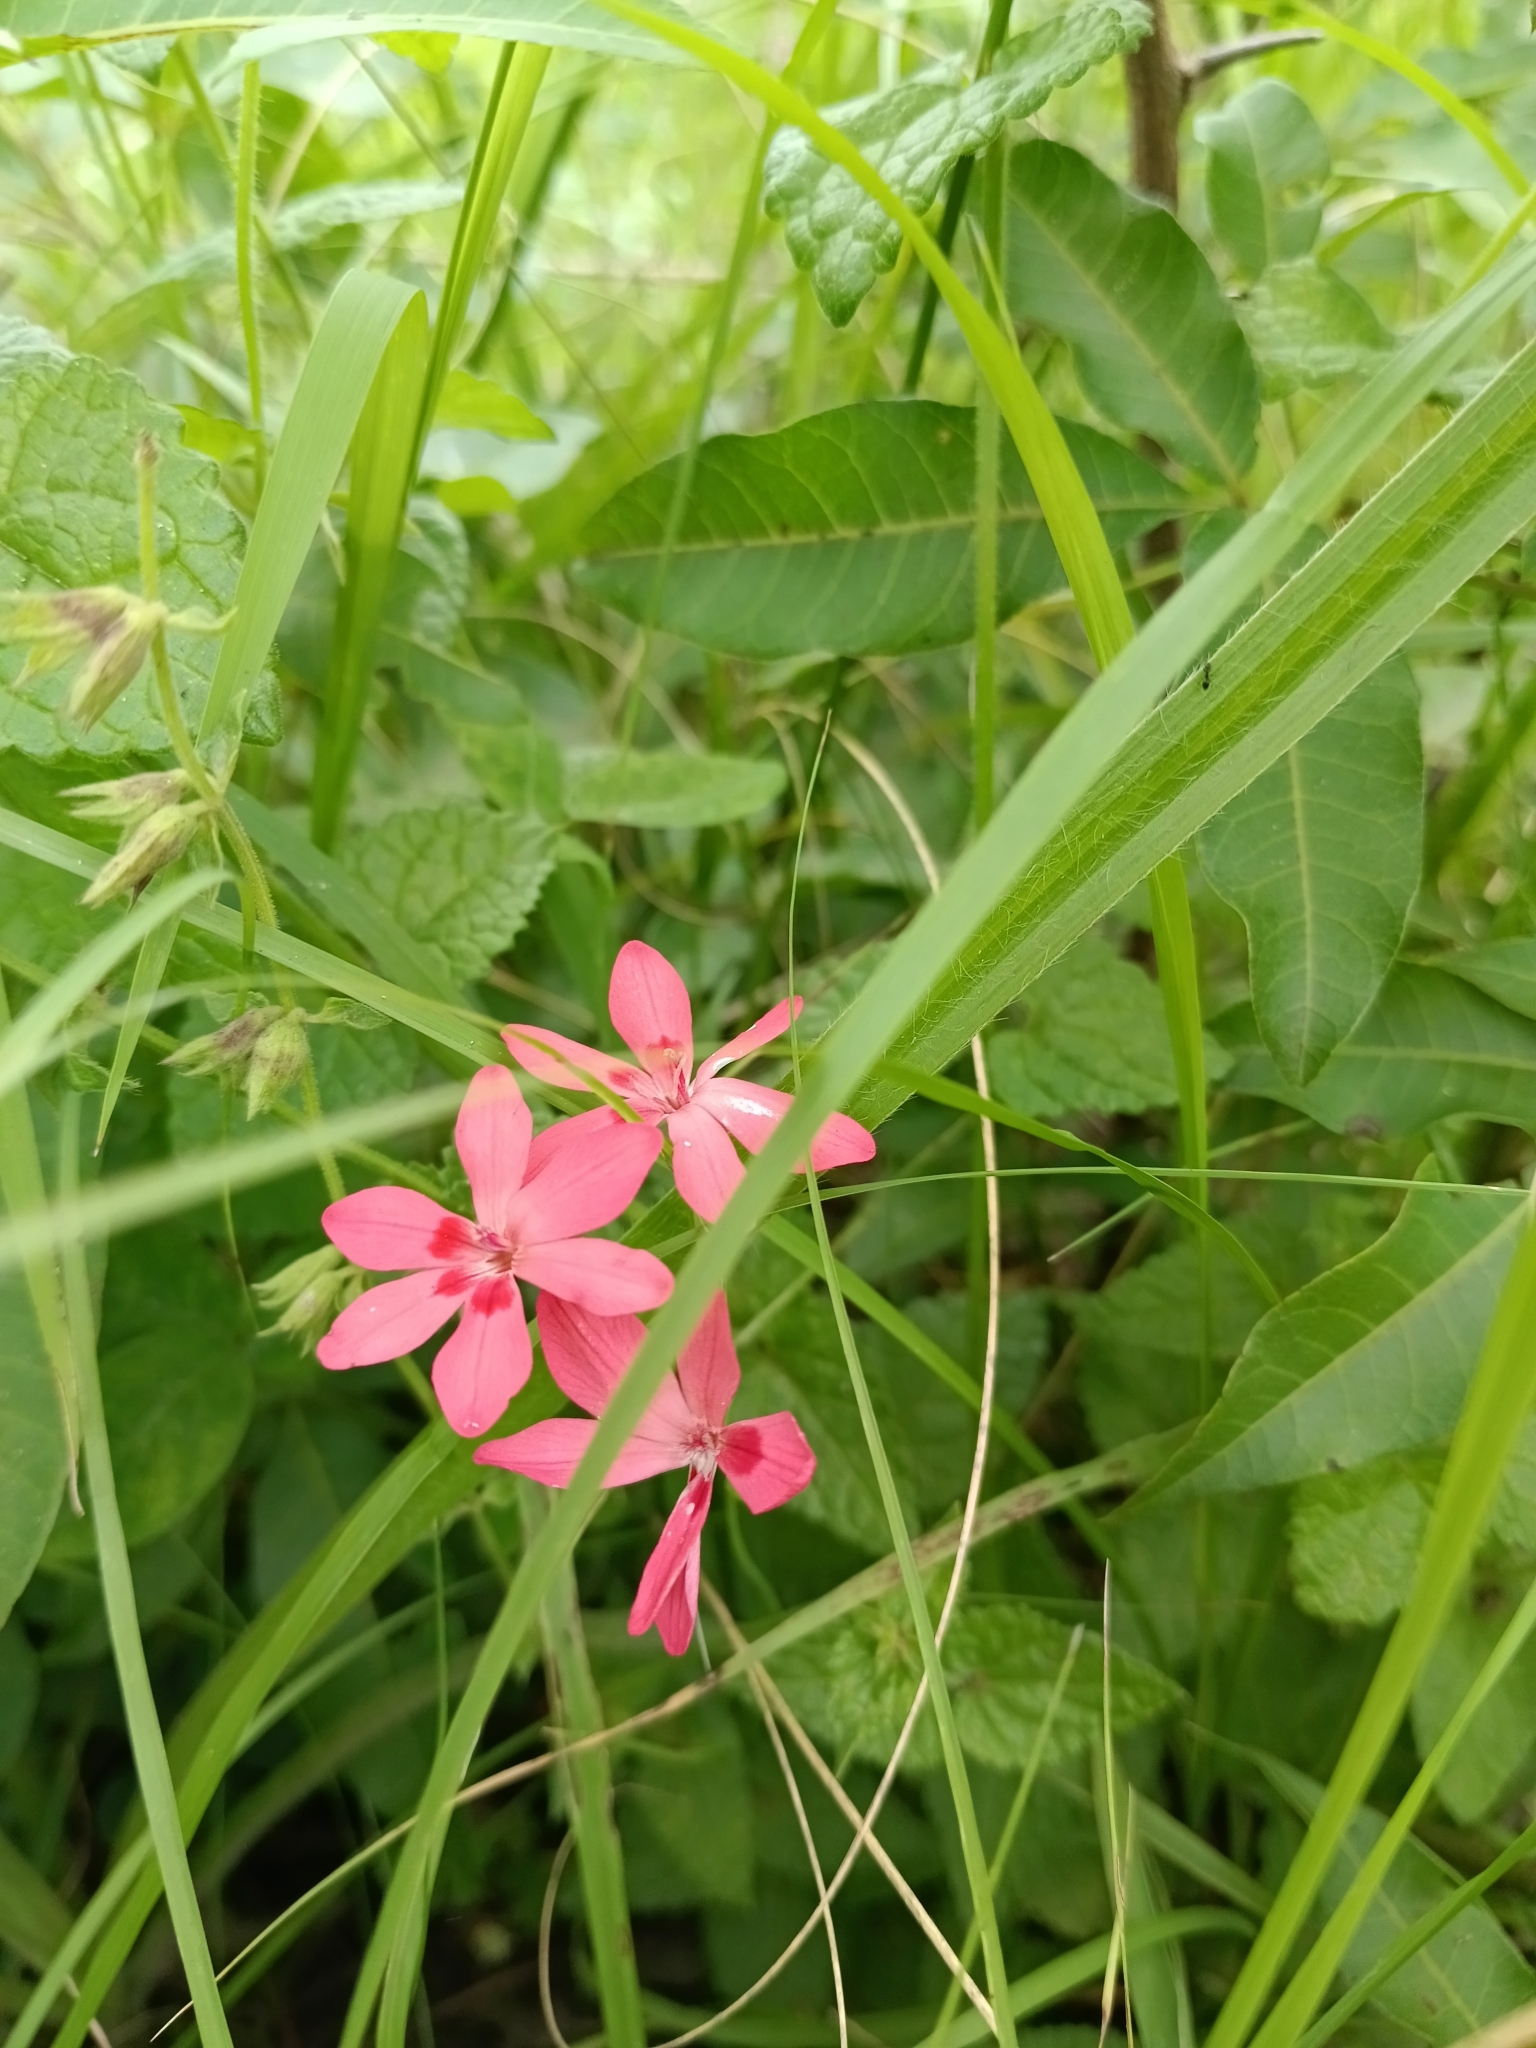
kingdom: Plantae
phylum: Tracheophyta
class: Liliopsida
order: Asparagales
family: Iridaceae
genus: Freesia
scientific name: Freesia laxa
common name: False freesia
